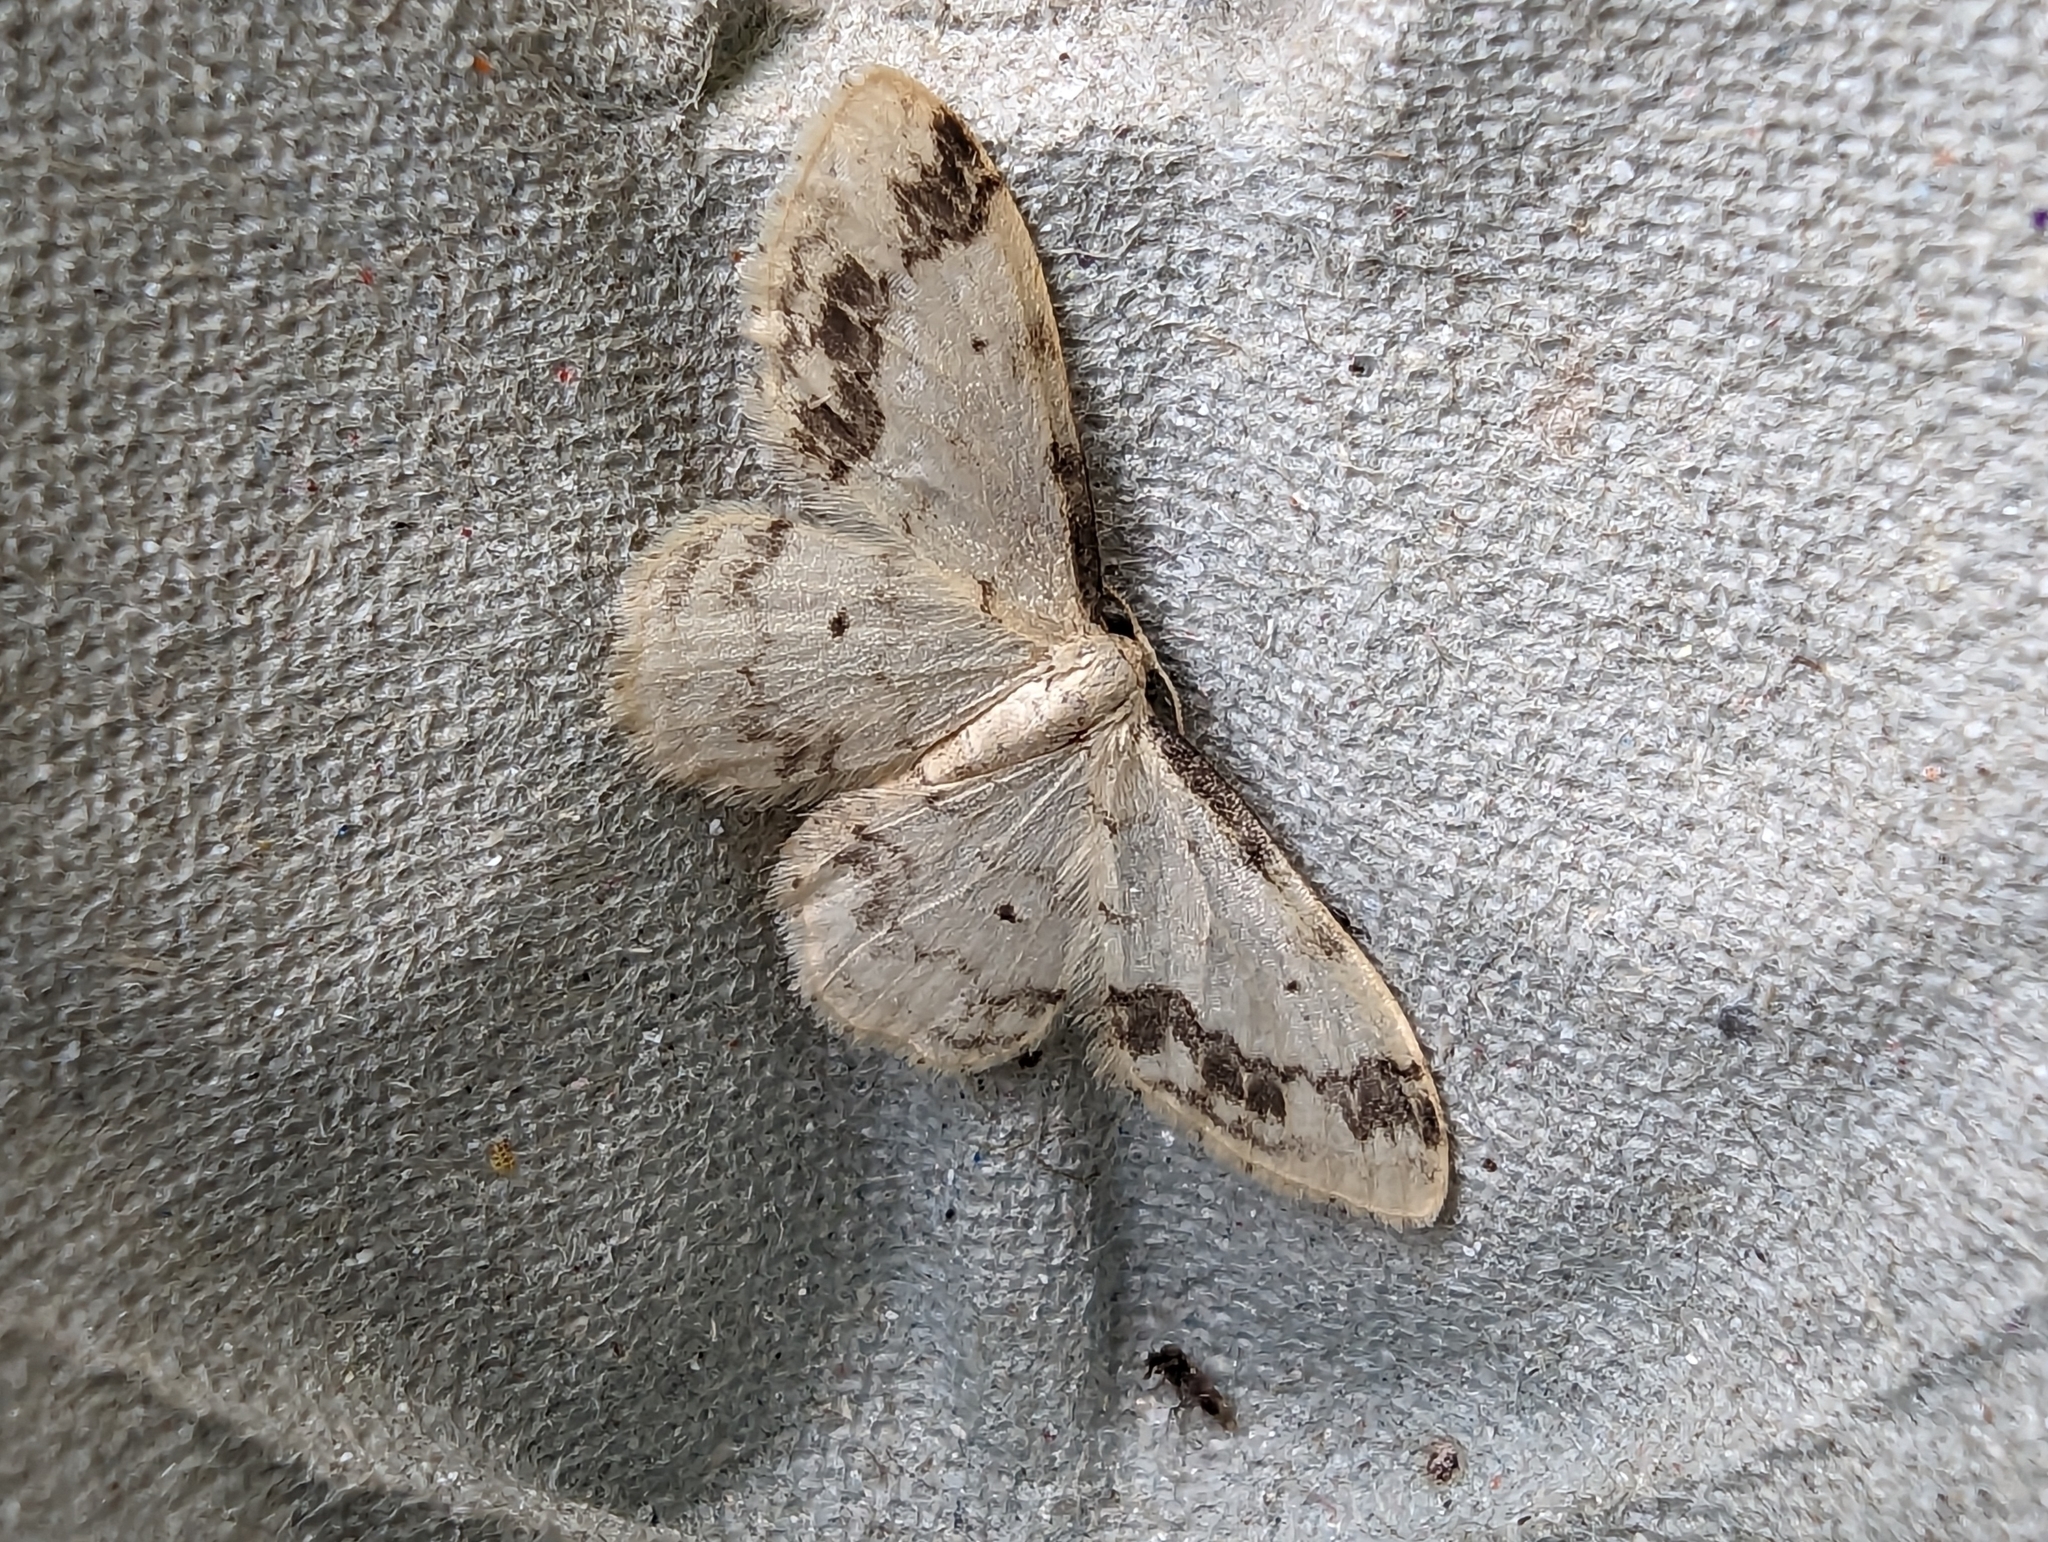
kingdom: Animalia
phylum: Arthropoda
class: Insecta
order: Lepidoptera
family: Geometridae
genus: Idaea
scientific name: Idaea trigeminata
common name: Treble brown spot
